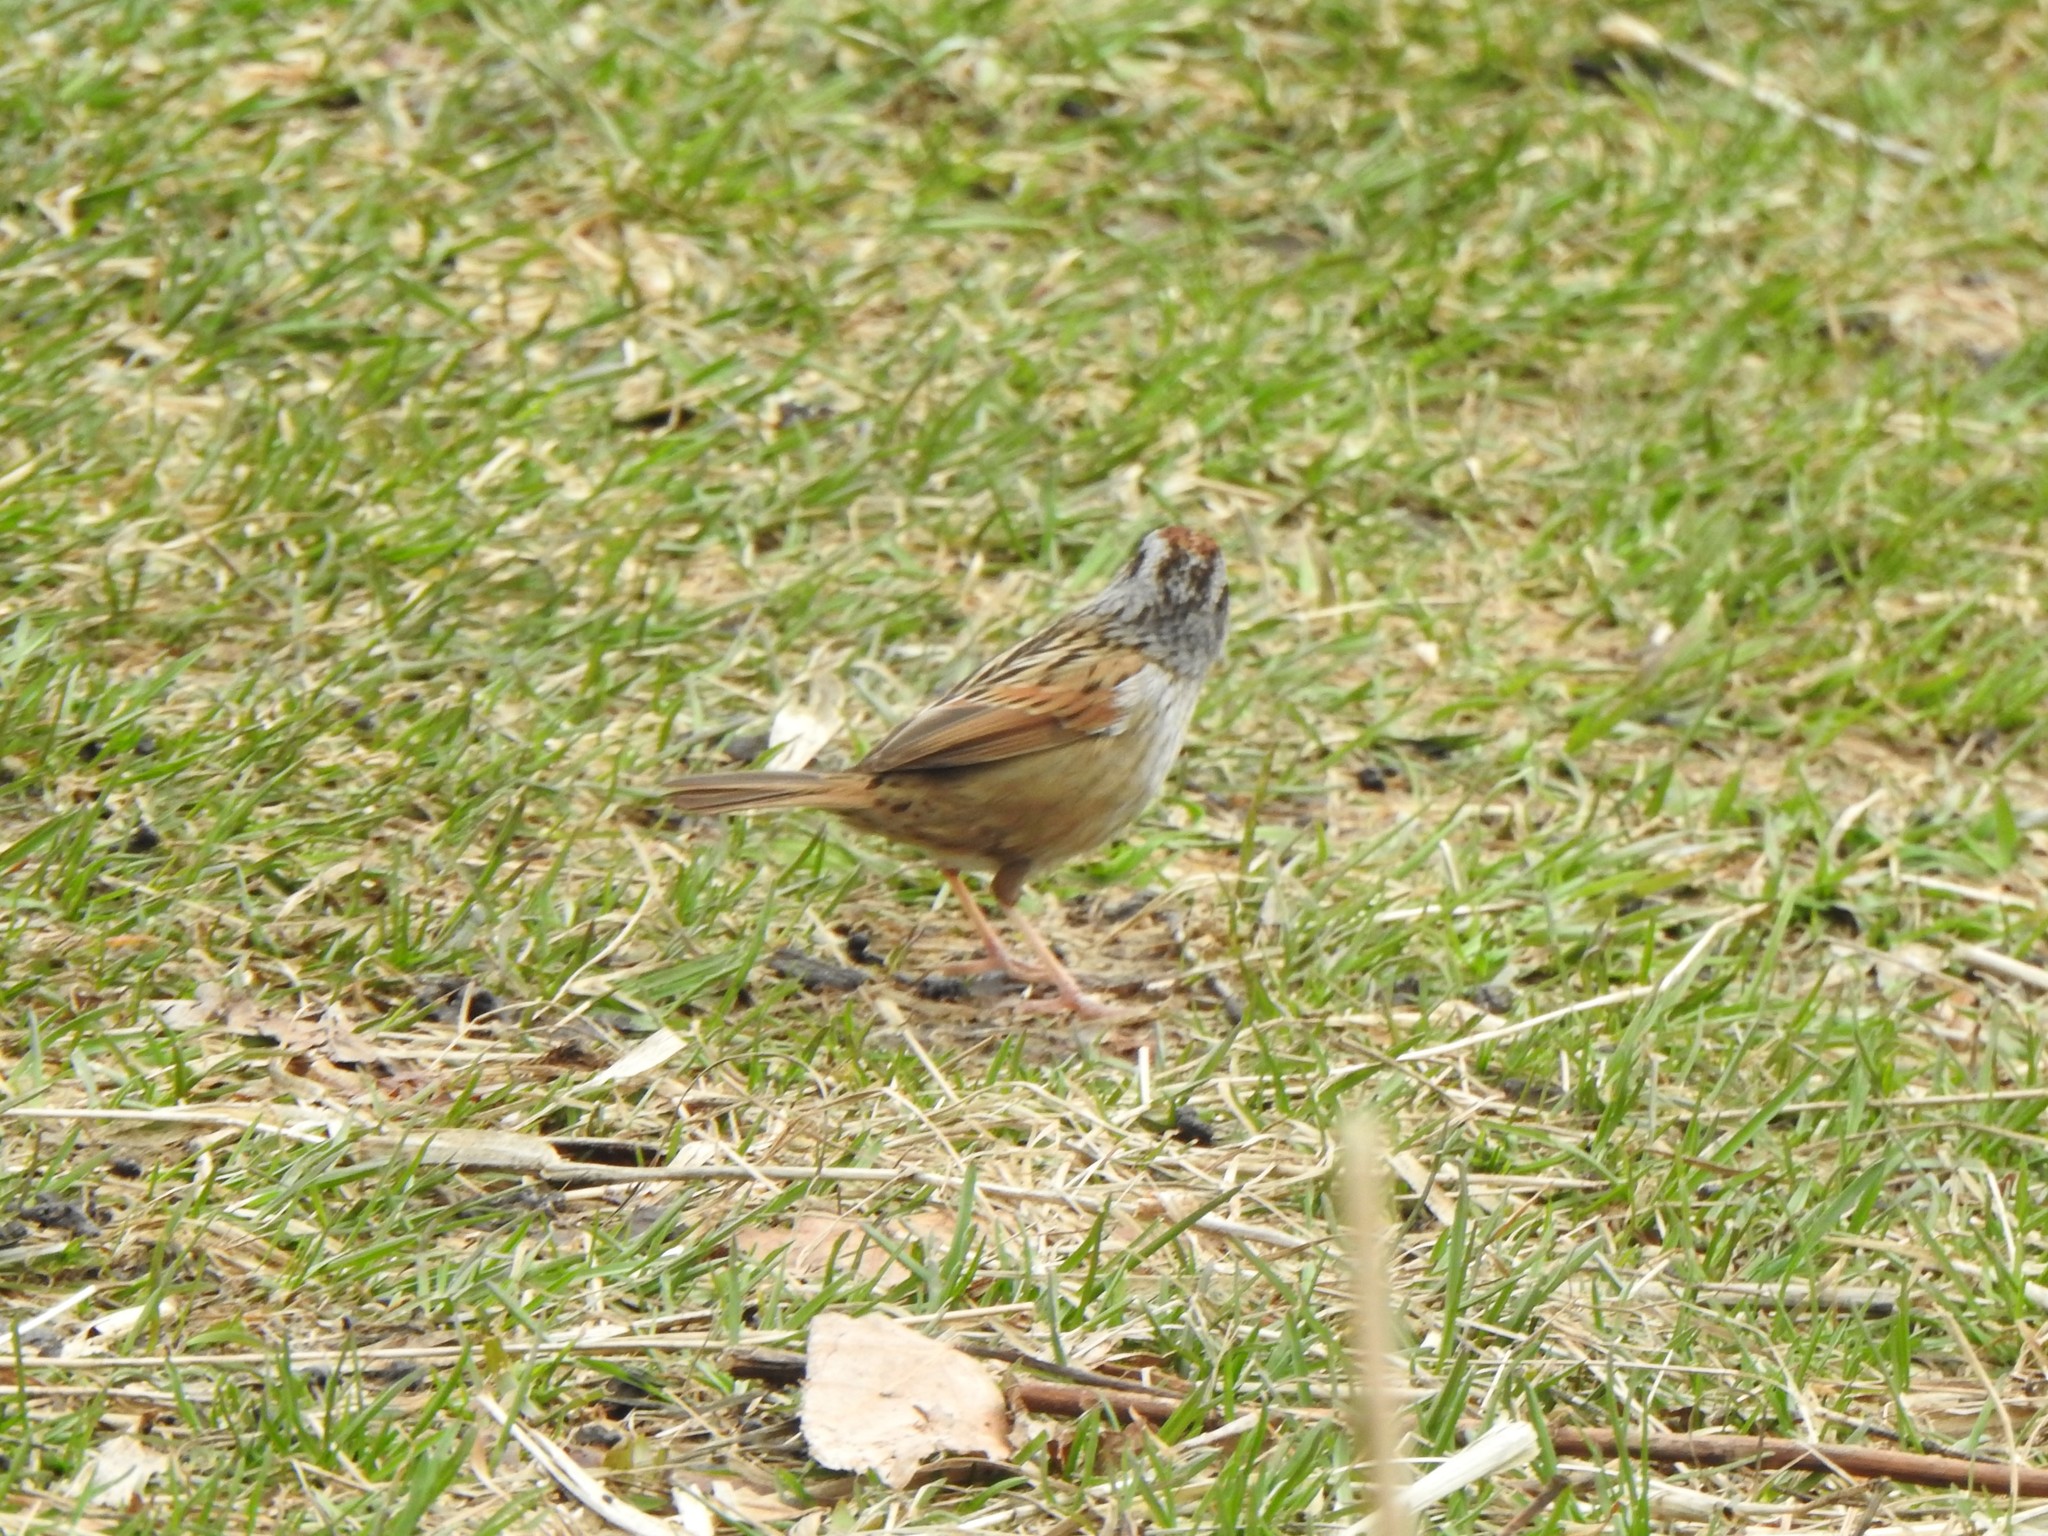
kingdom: Animalia
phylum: Chordata
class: Aves
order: Passeriformes
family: Passerellidae
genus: Melospiza
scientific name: Melospiza georgiana
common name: Swamp sparrow
